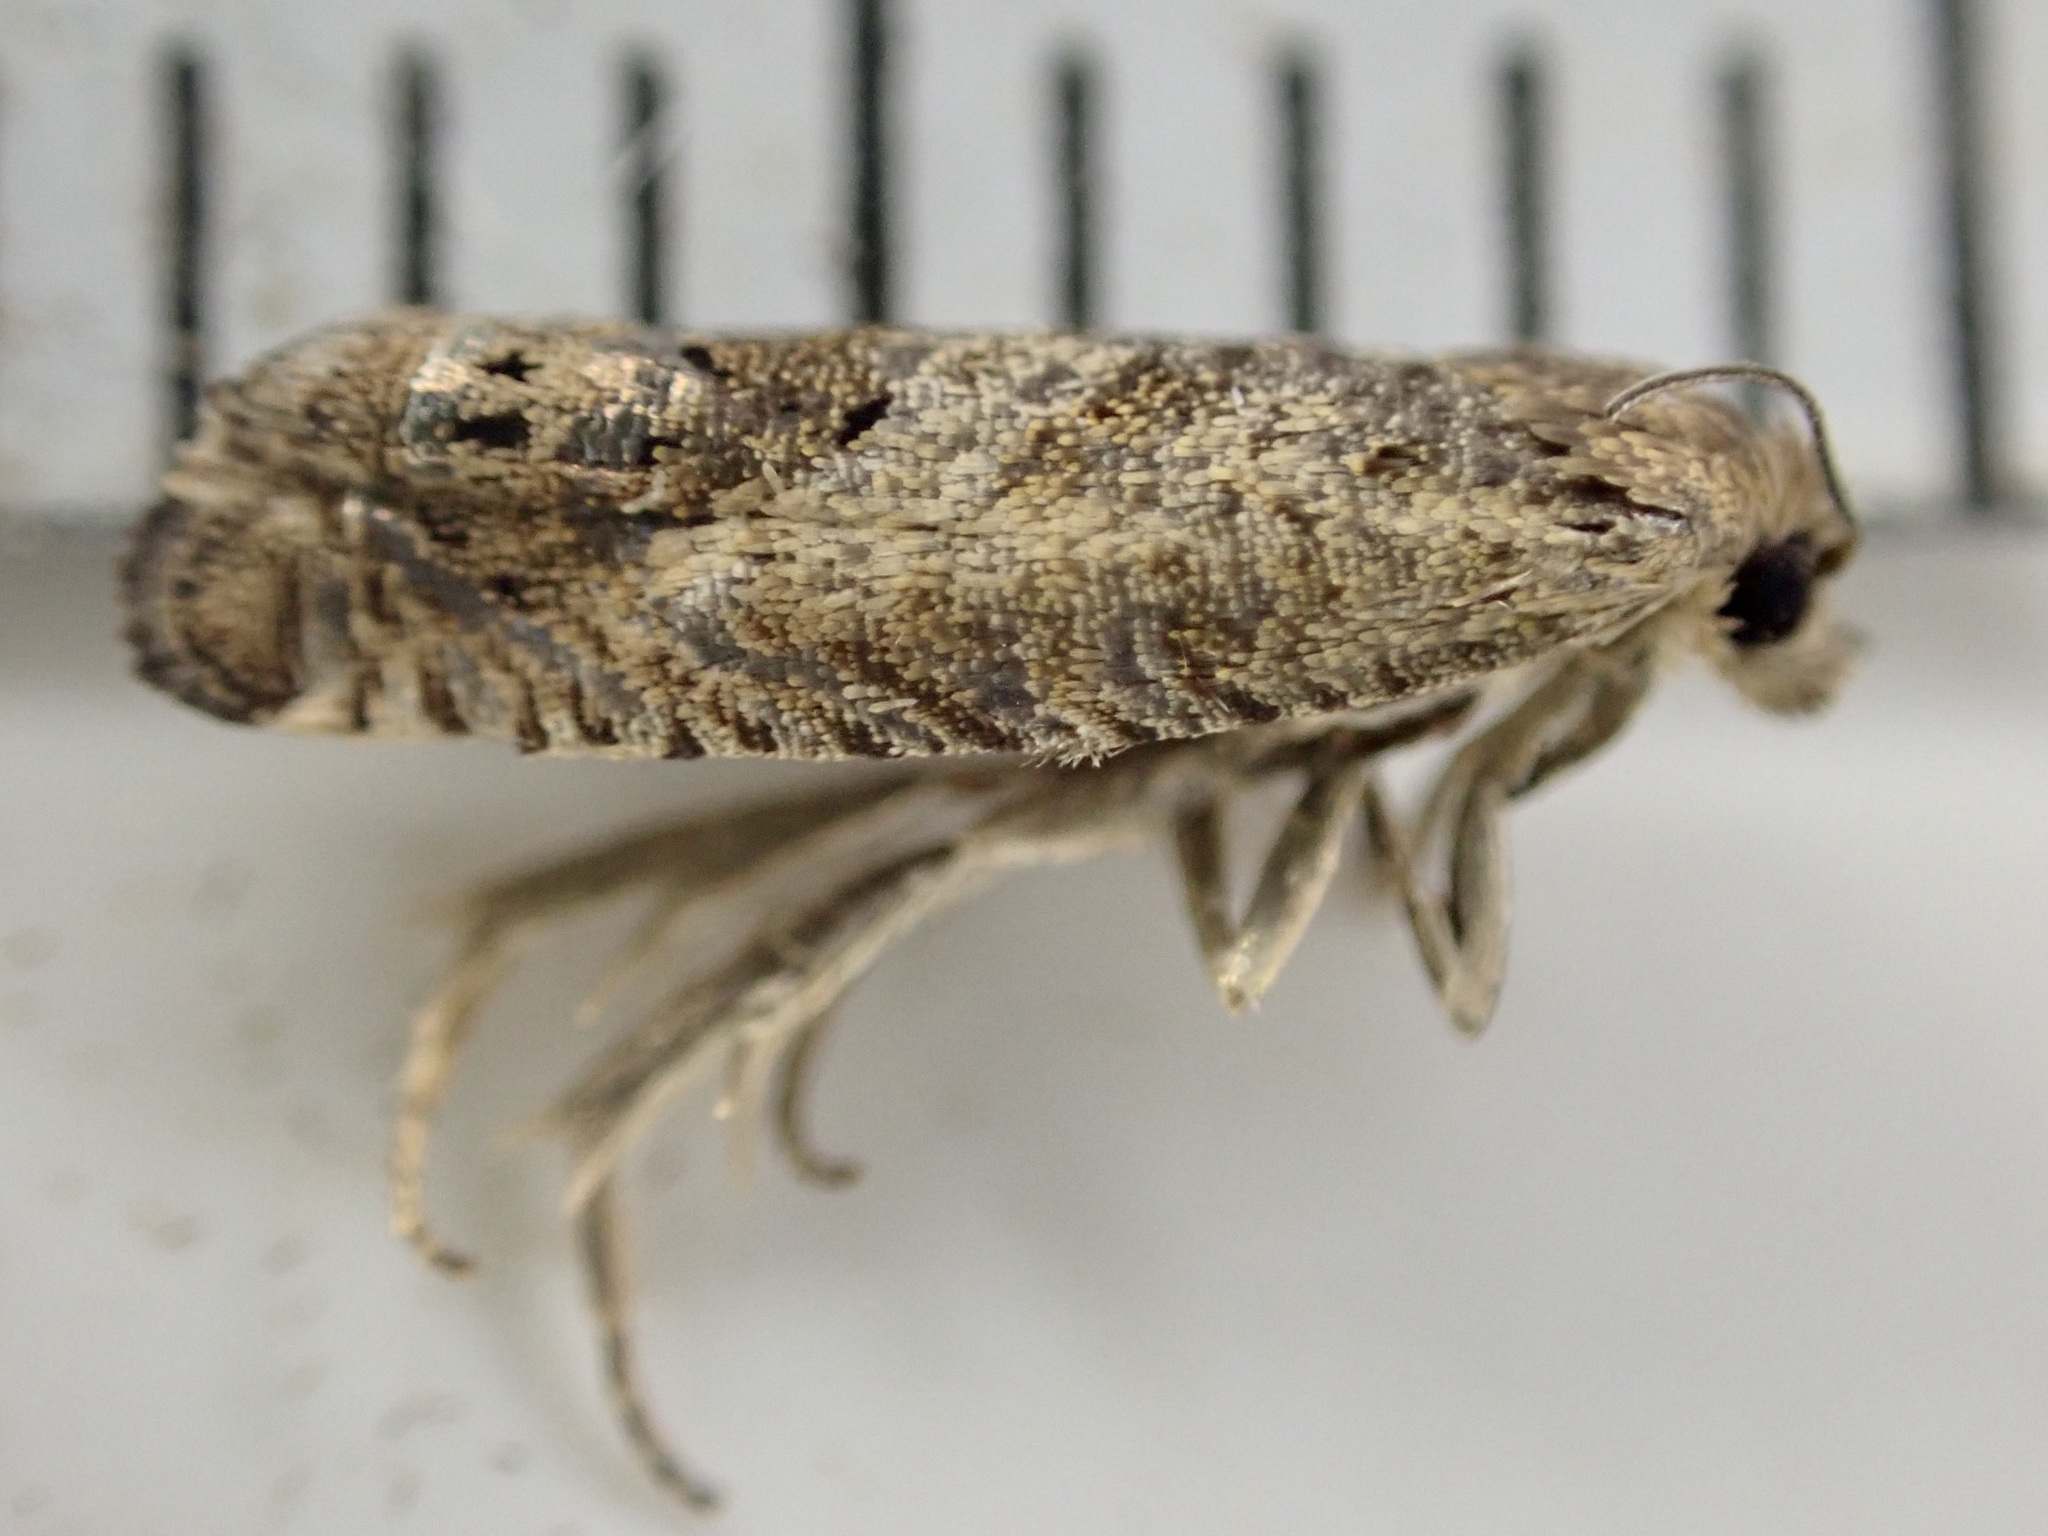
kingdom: Animalia
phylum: Arthropoda
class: Insecta
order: Lepidoptera
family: Tortricidae
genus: Cydia
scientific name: Cydia succedana
